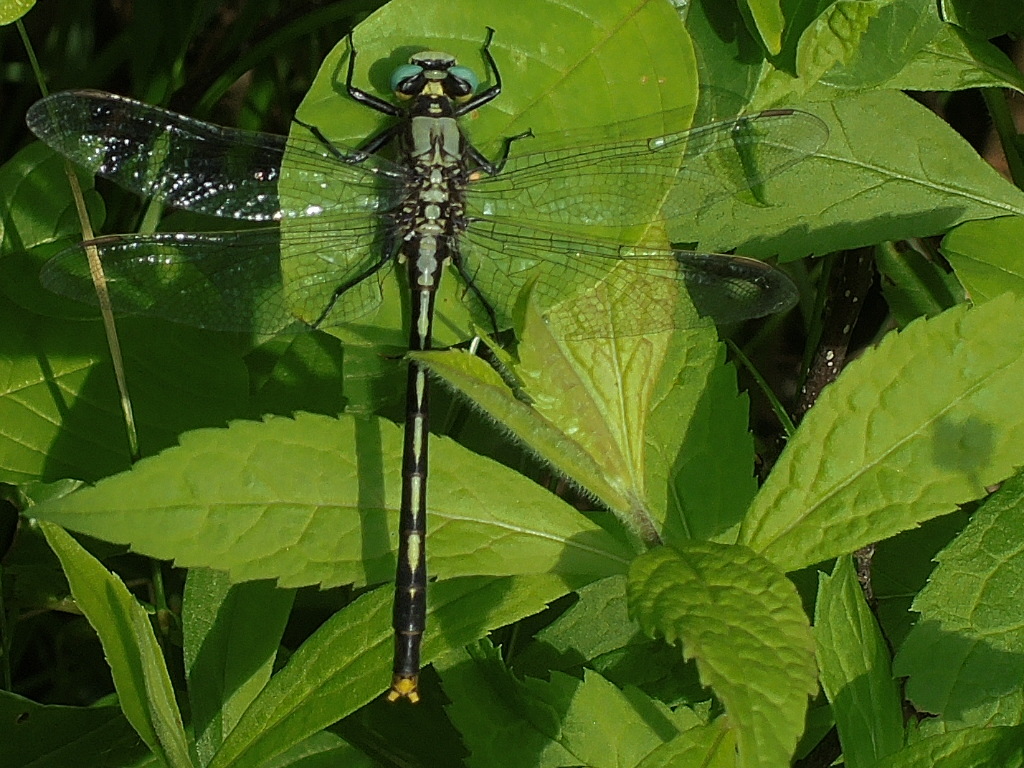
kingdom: Animalia
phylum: Arthropoda
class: Insecta
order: Odonata
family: Gomphidae
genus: Arigomphus
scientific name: Arigomphus furcifer
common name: Lilypad clubtail
